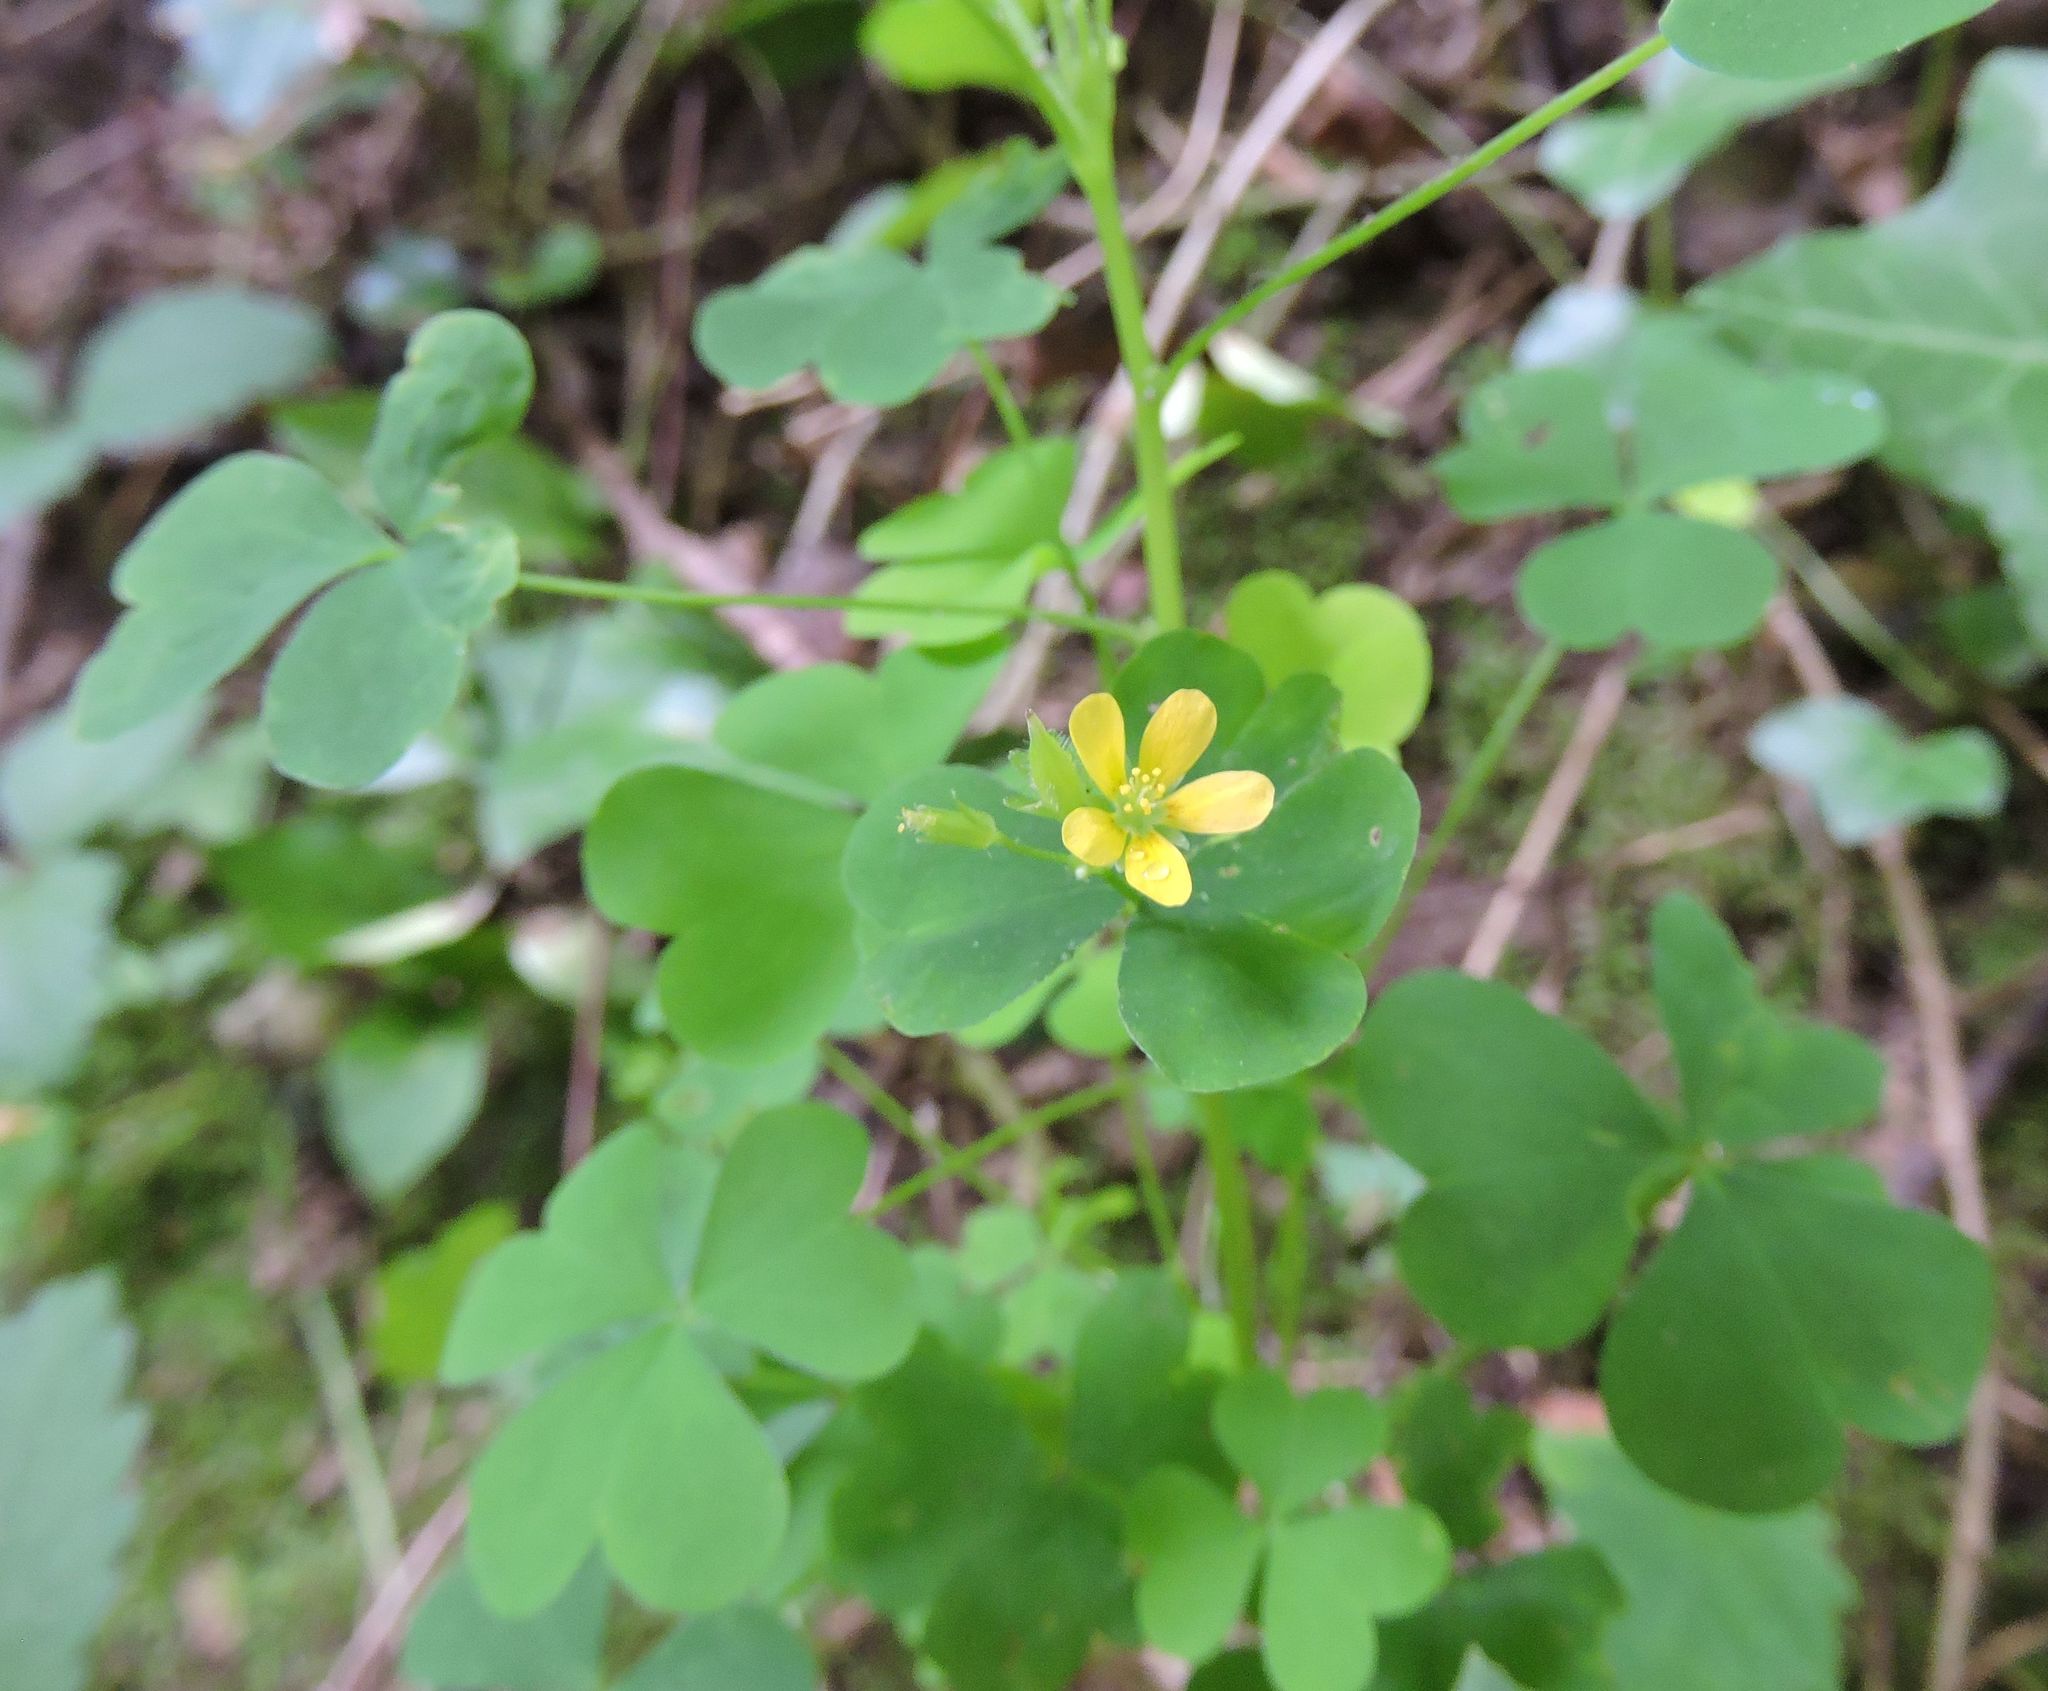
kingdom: Plantae
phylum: Tracheophyta
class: Magnoliopsida
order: Oxalidales
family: Oxalidaceae
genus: Oxalis
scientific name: Oxalis stricta
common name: Upright yellow-sorrel
